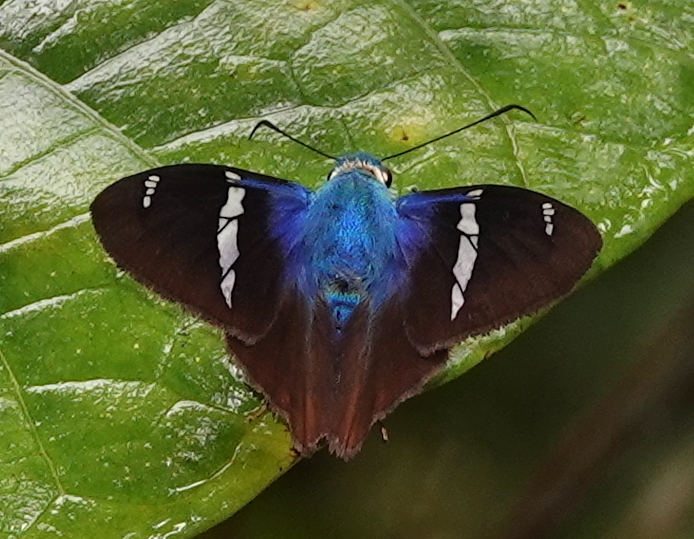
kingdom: Animalia
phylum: Arthropoda
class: Insecta
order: Lepidoptera
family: Hesperiidae
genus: Astraptes
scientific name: Astraptes fulgerator
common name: Two-barred flasher
